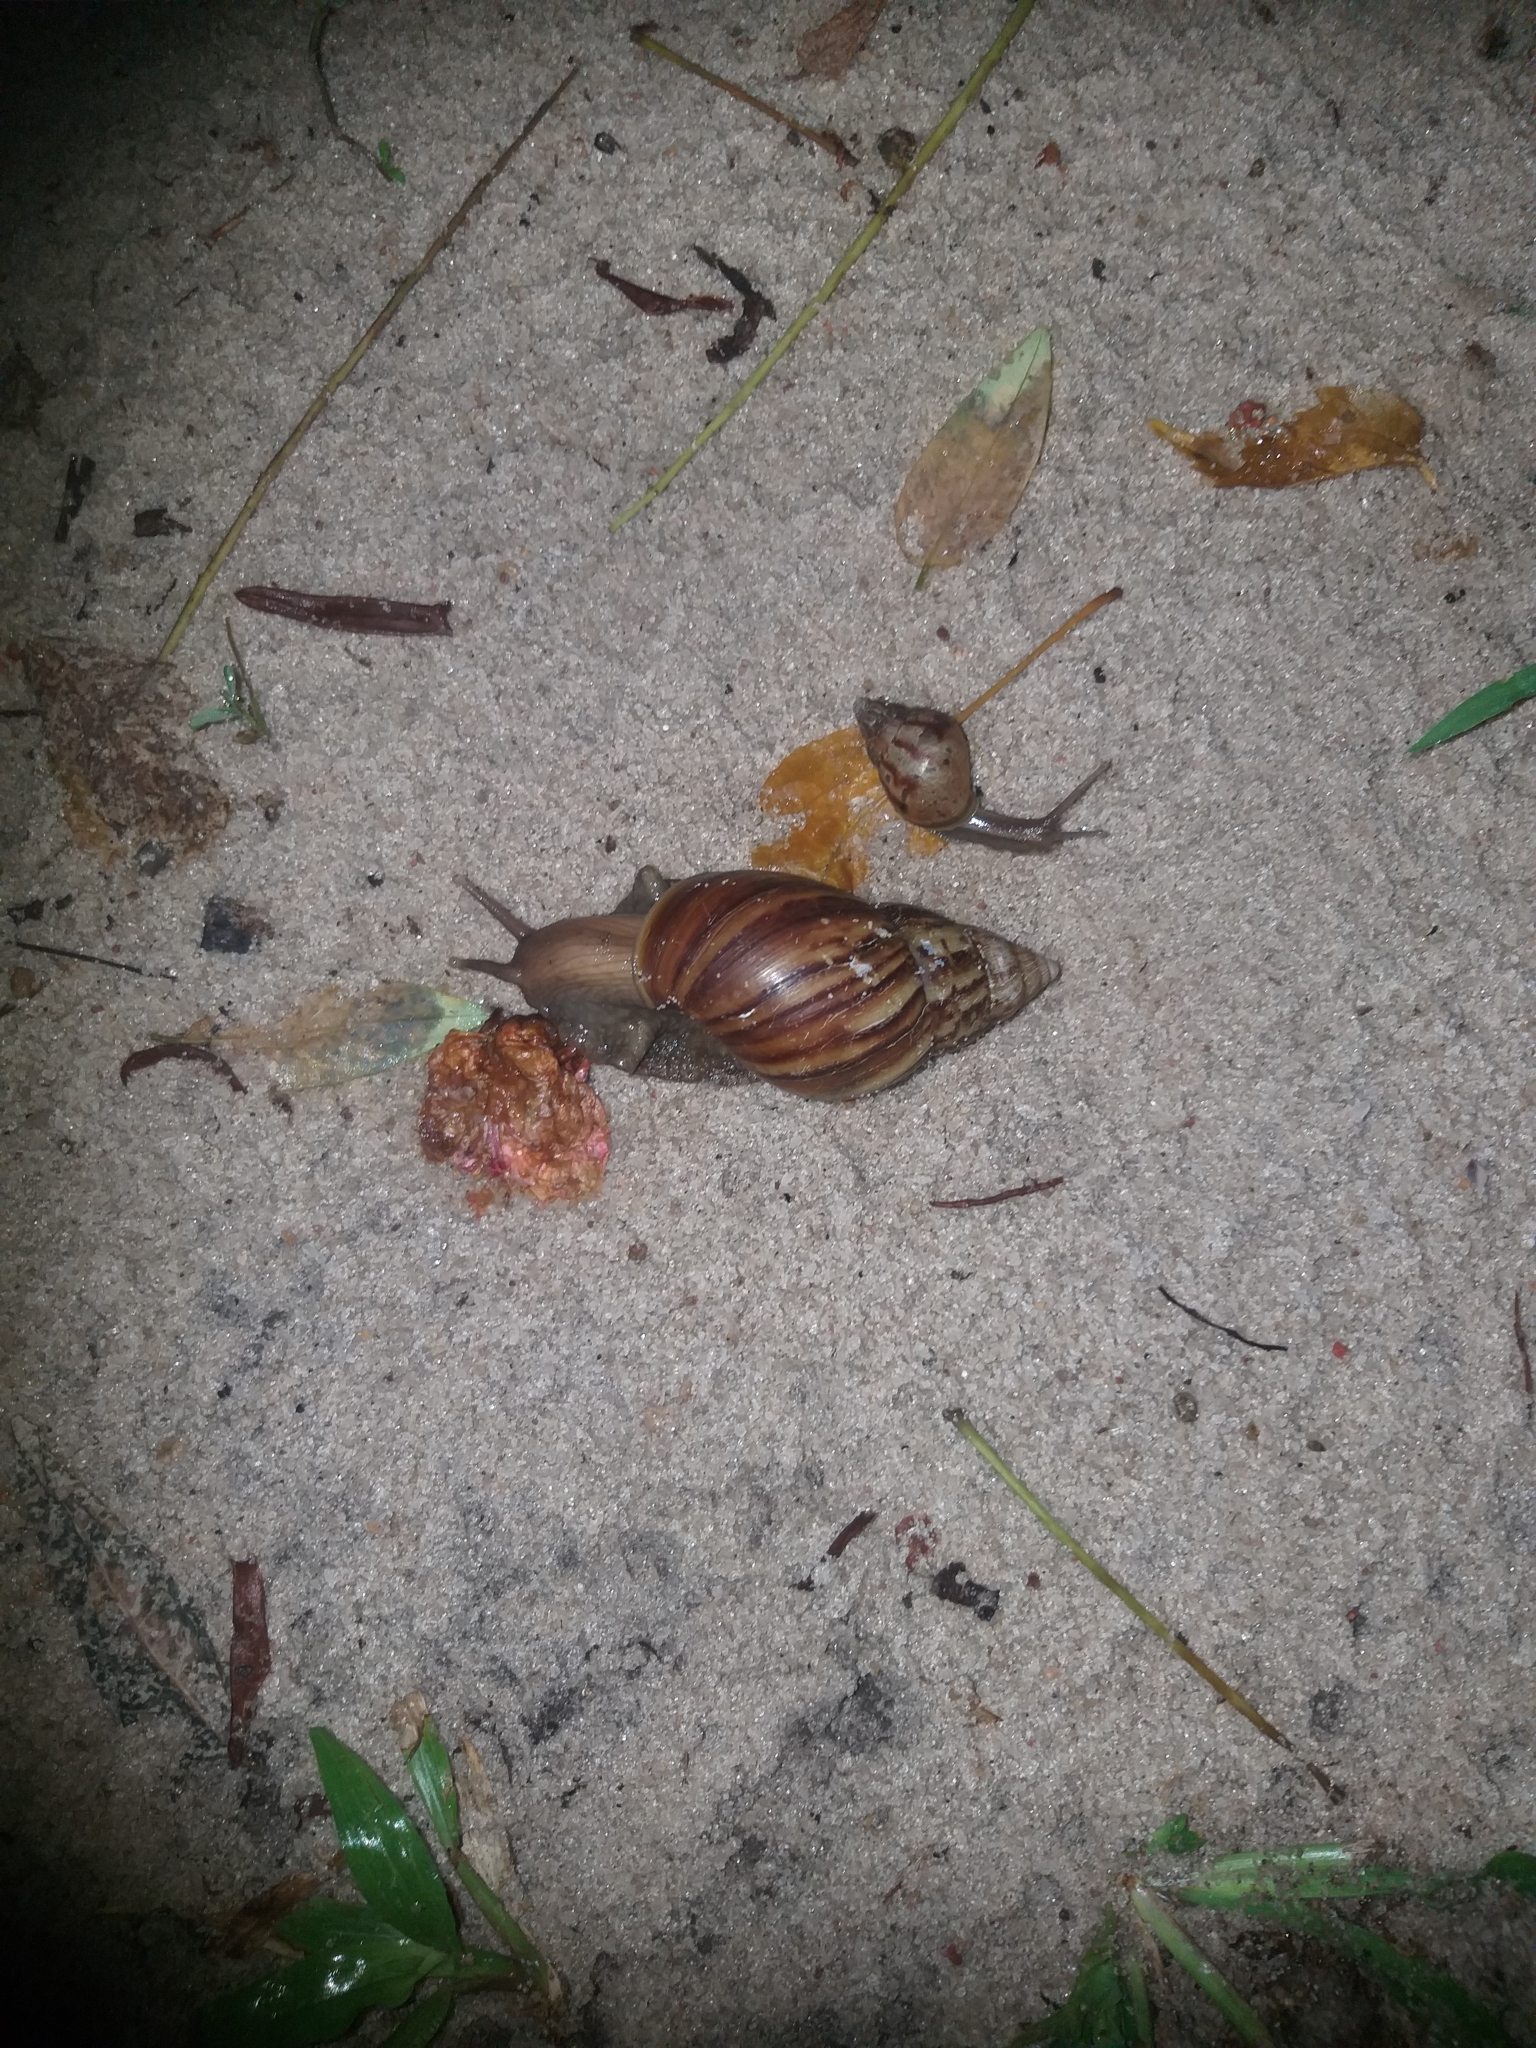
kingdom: Animalia
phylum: Mollusca
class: Gastropoda
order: Stylommatophora
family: Achatinidae
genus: Lissachatina
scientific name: Lissachatina fulica
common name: Giant african snail
